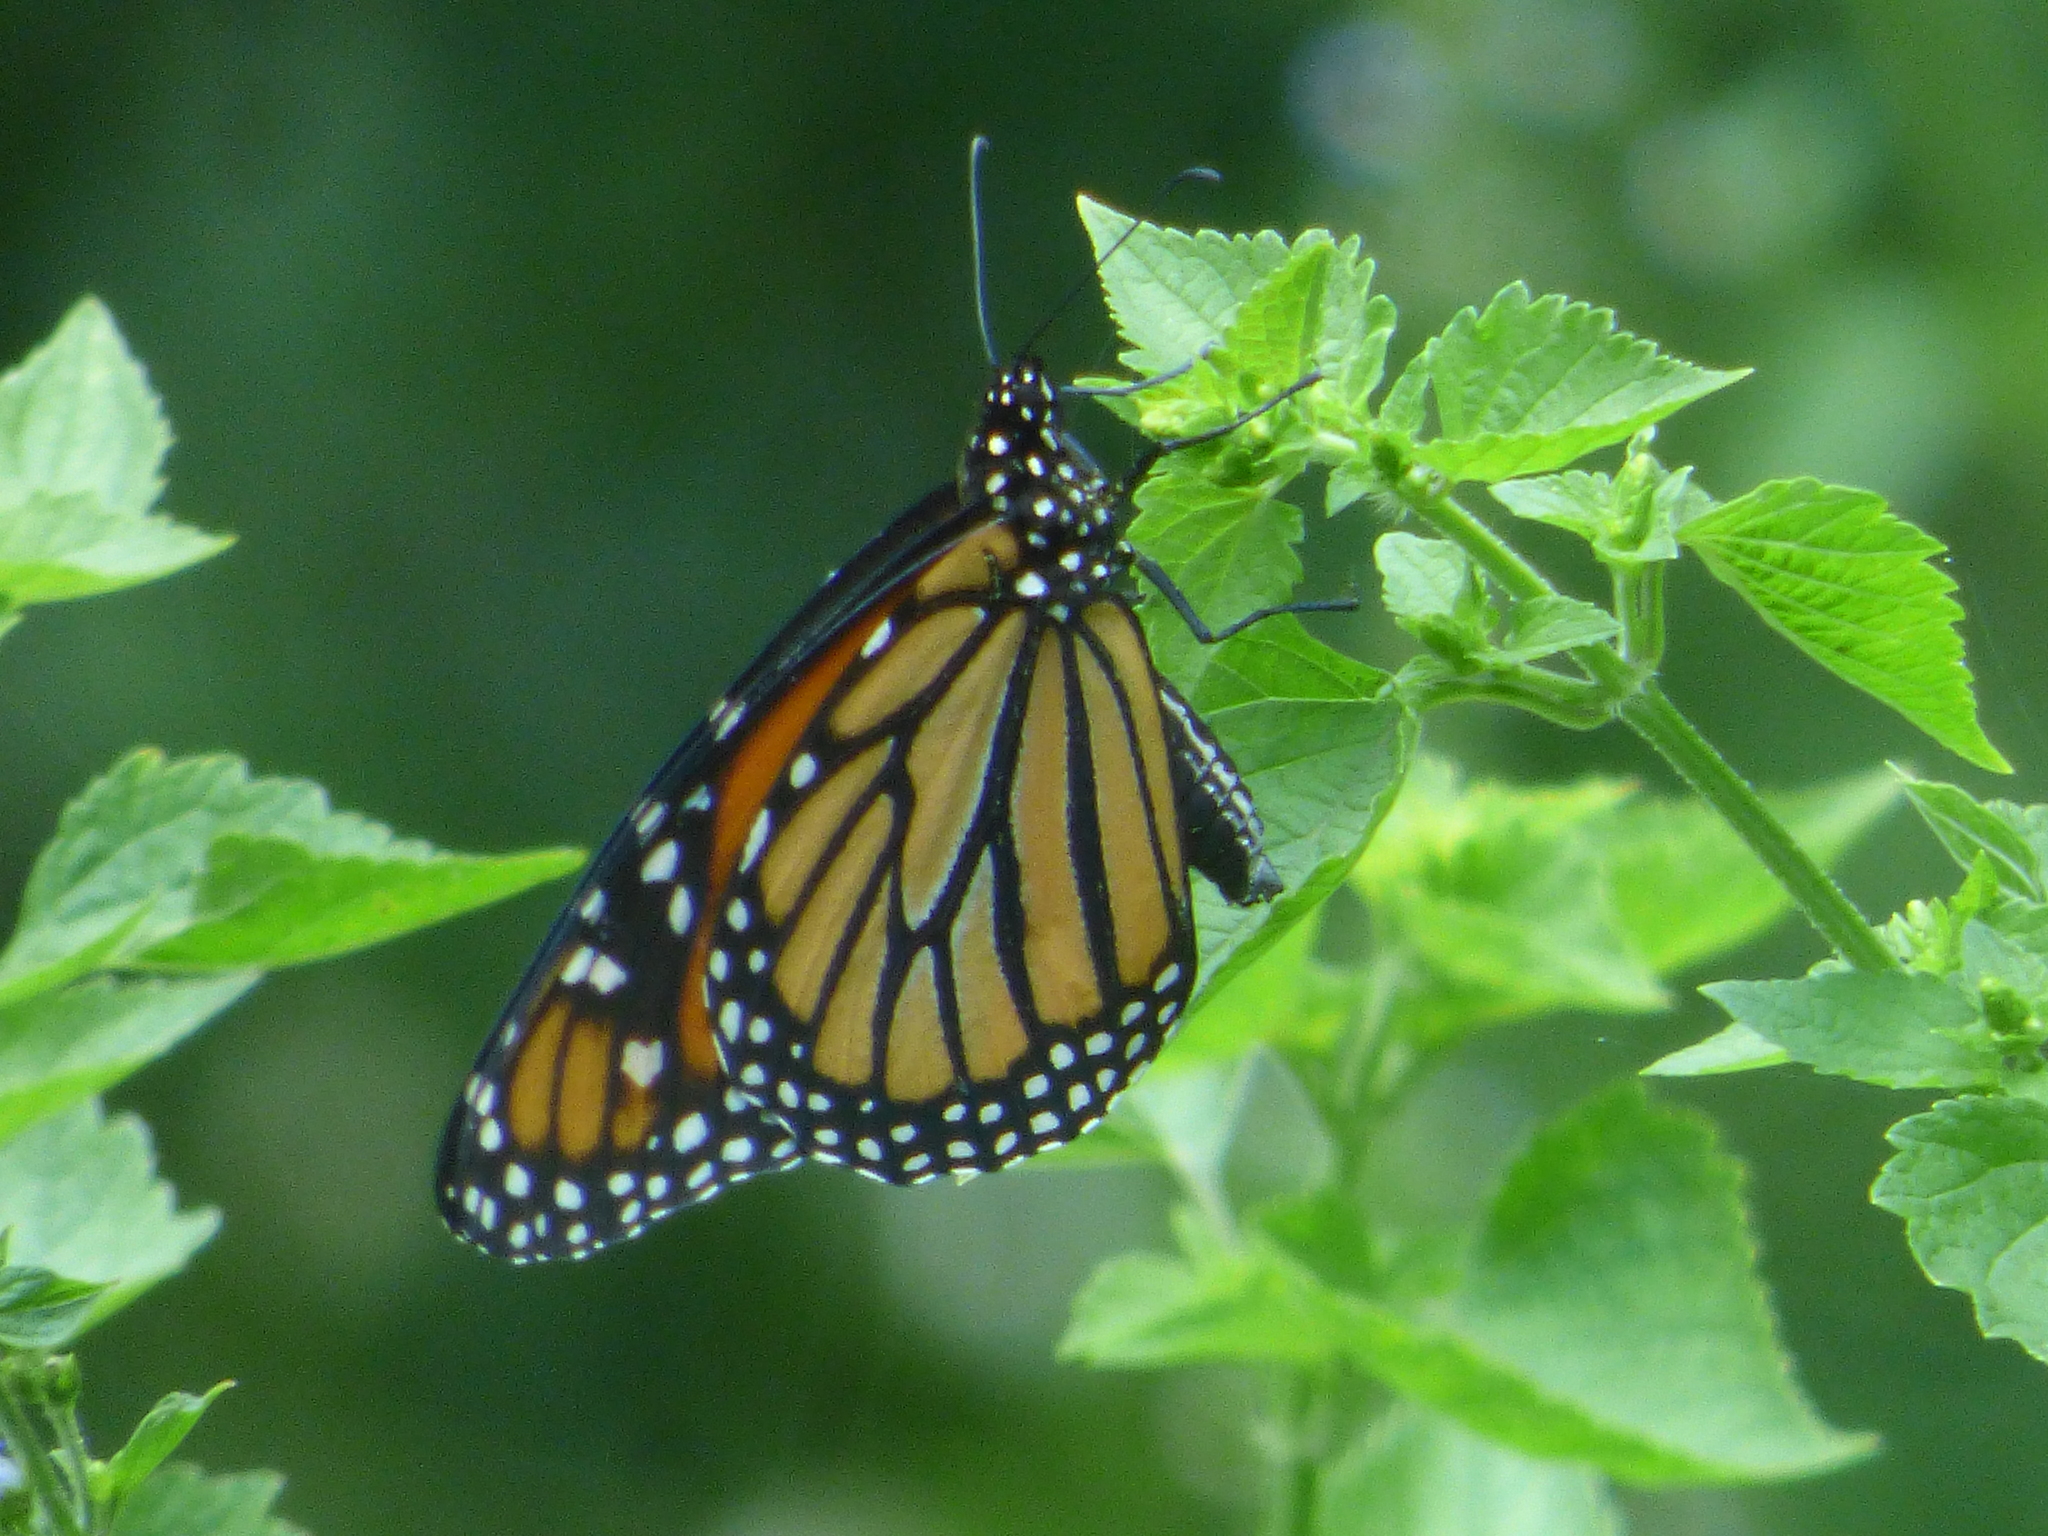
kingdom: Animalia
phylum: Arthropoda
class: Insecta
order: Lepidoptera
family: Nymphalidae
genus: Danaus
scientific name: Danaus plexippus
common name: Monarch
